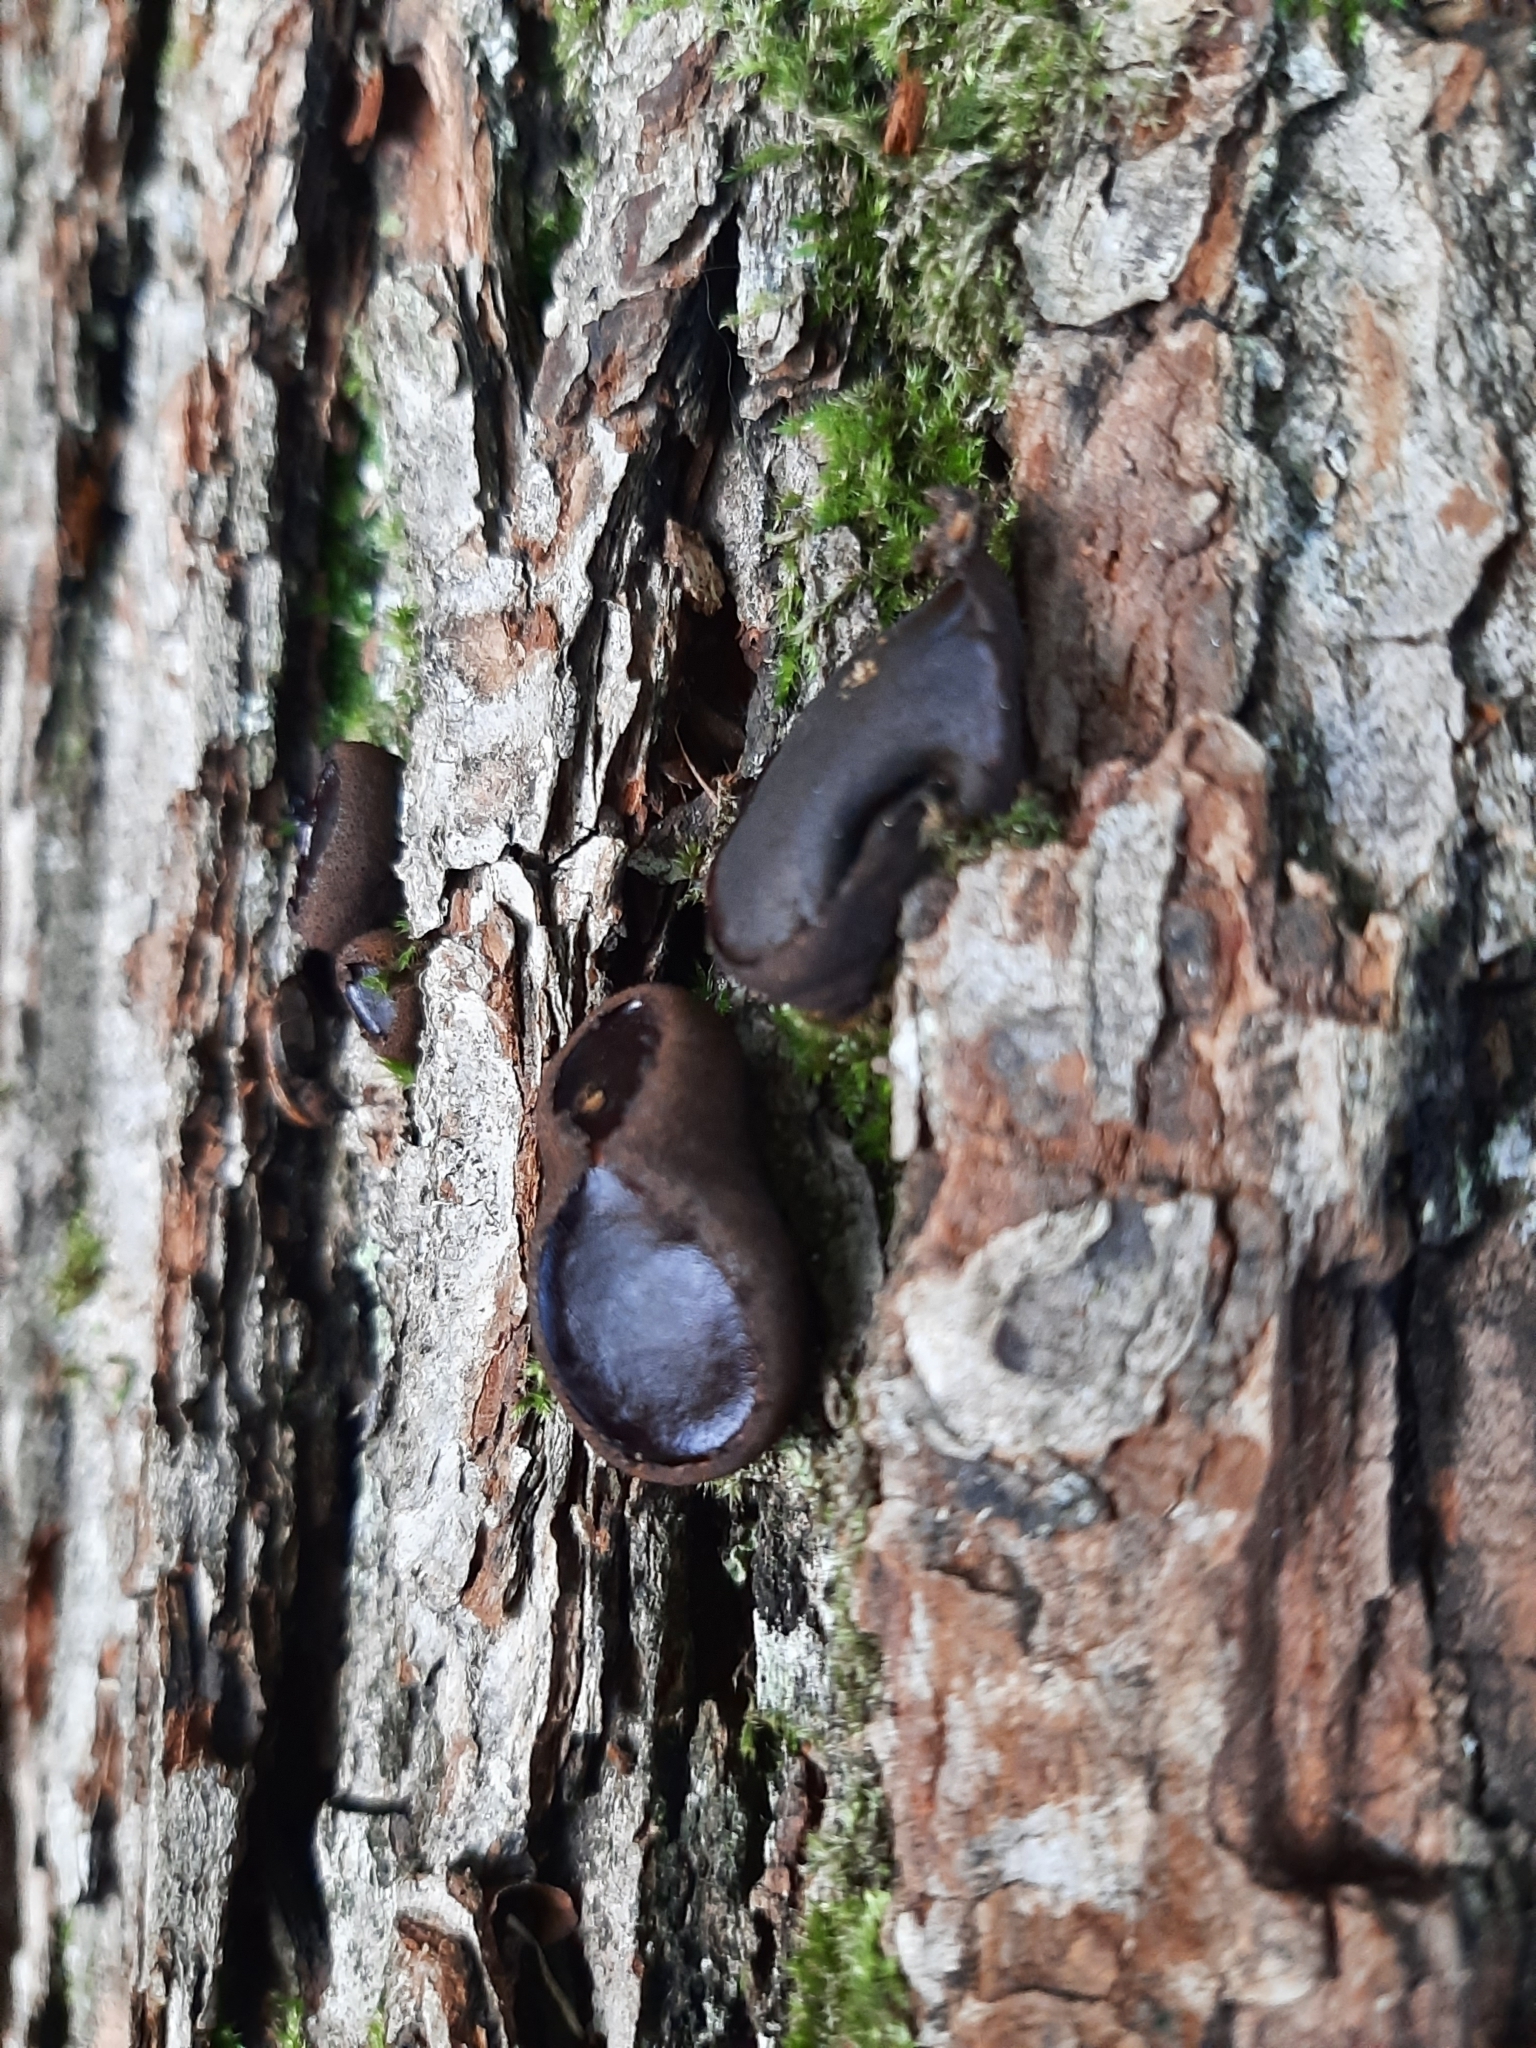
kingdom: Fungi
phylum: Ascomycota
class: Leotiomycetes
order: Phacidiales
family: Phacidiaceae
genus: Bulgaria
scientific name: Bulgaria inquinans
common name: Black bulgar
